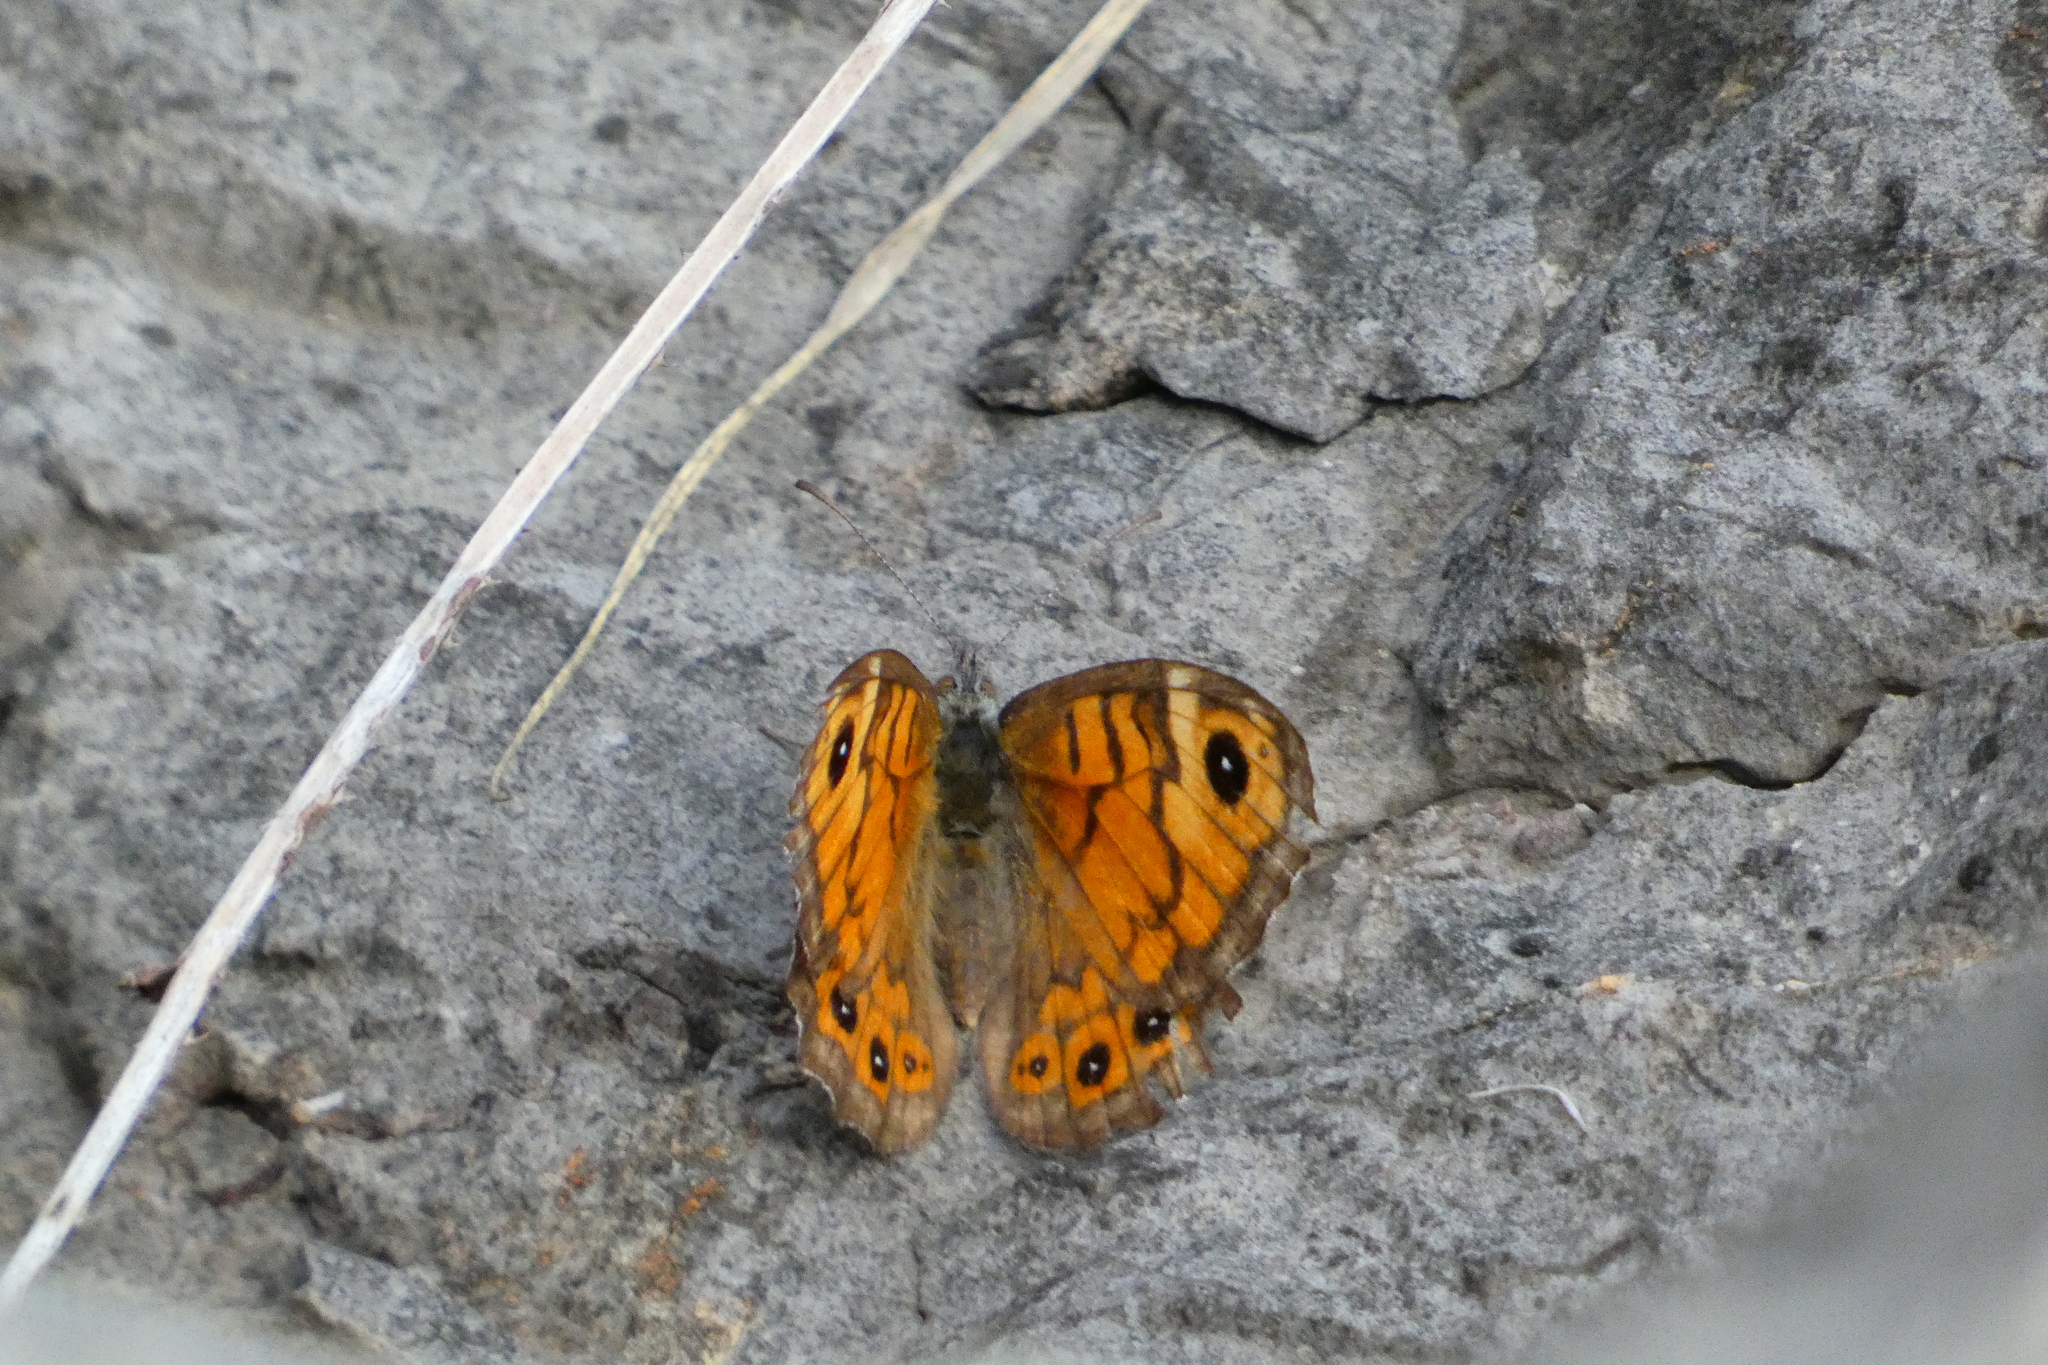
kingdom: Animalia
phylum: Arthropoda
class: Insecta
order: Lepidoptera
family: Nymphalidae
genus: Pararge
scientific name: Pararge Lasiommata megera
